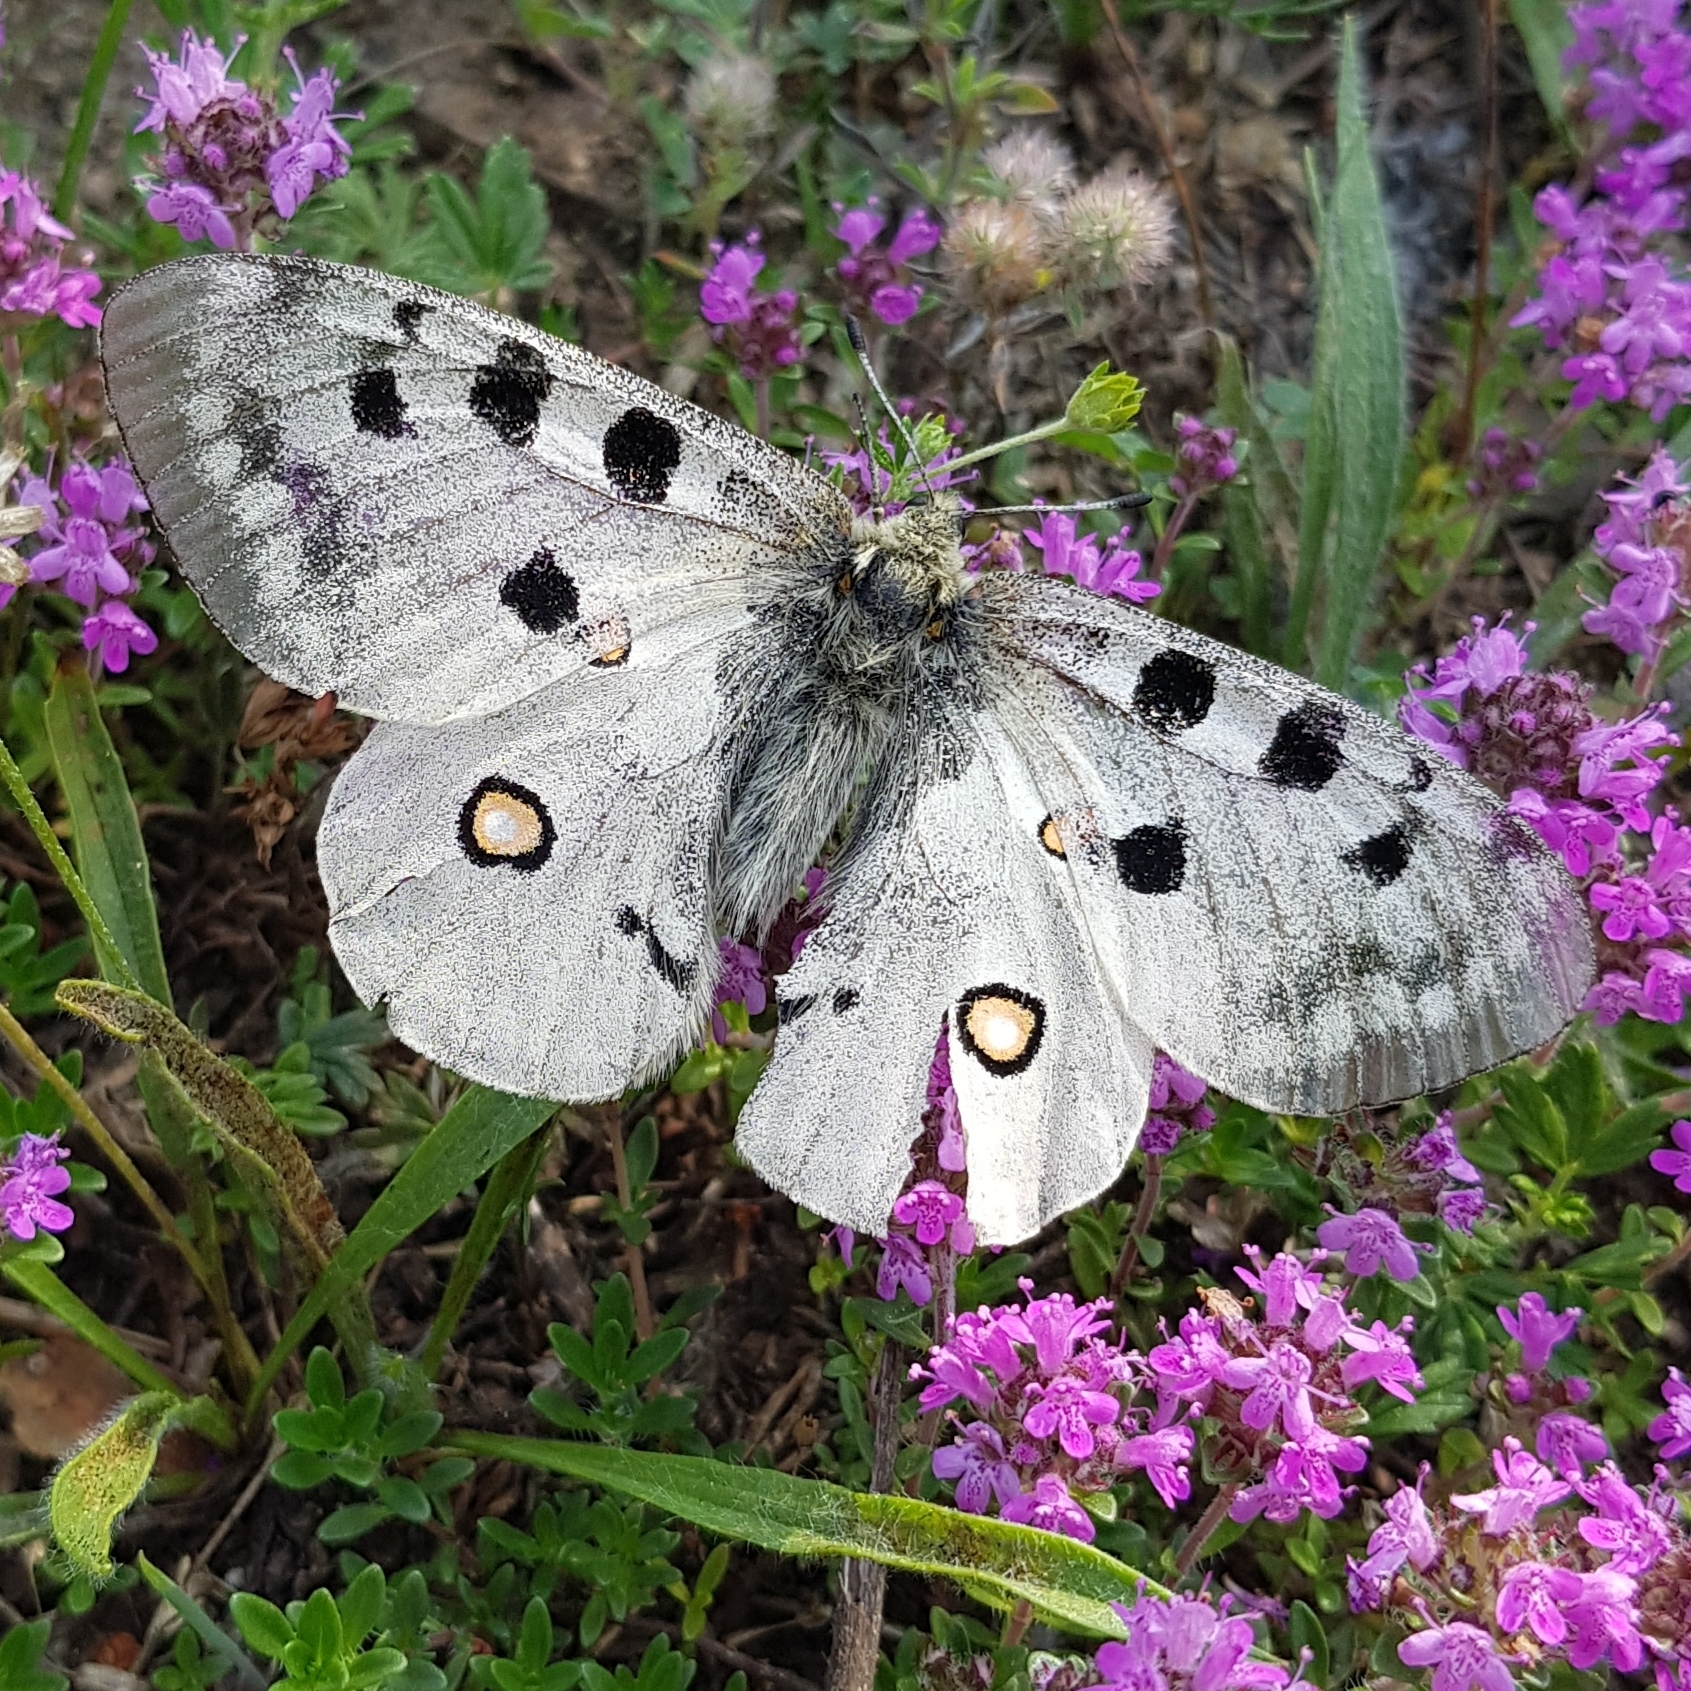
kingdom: Animalia
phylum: Arthropoda
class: Insecta
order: Lepidoptera
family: Papilionidae
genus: Parnassius
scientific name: Parnassius apollo
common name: Apollo
